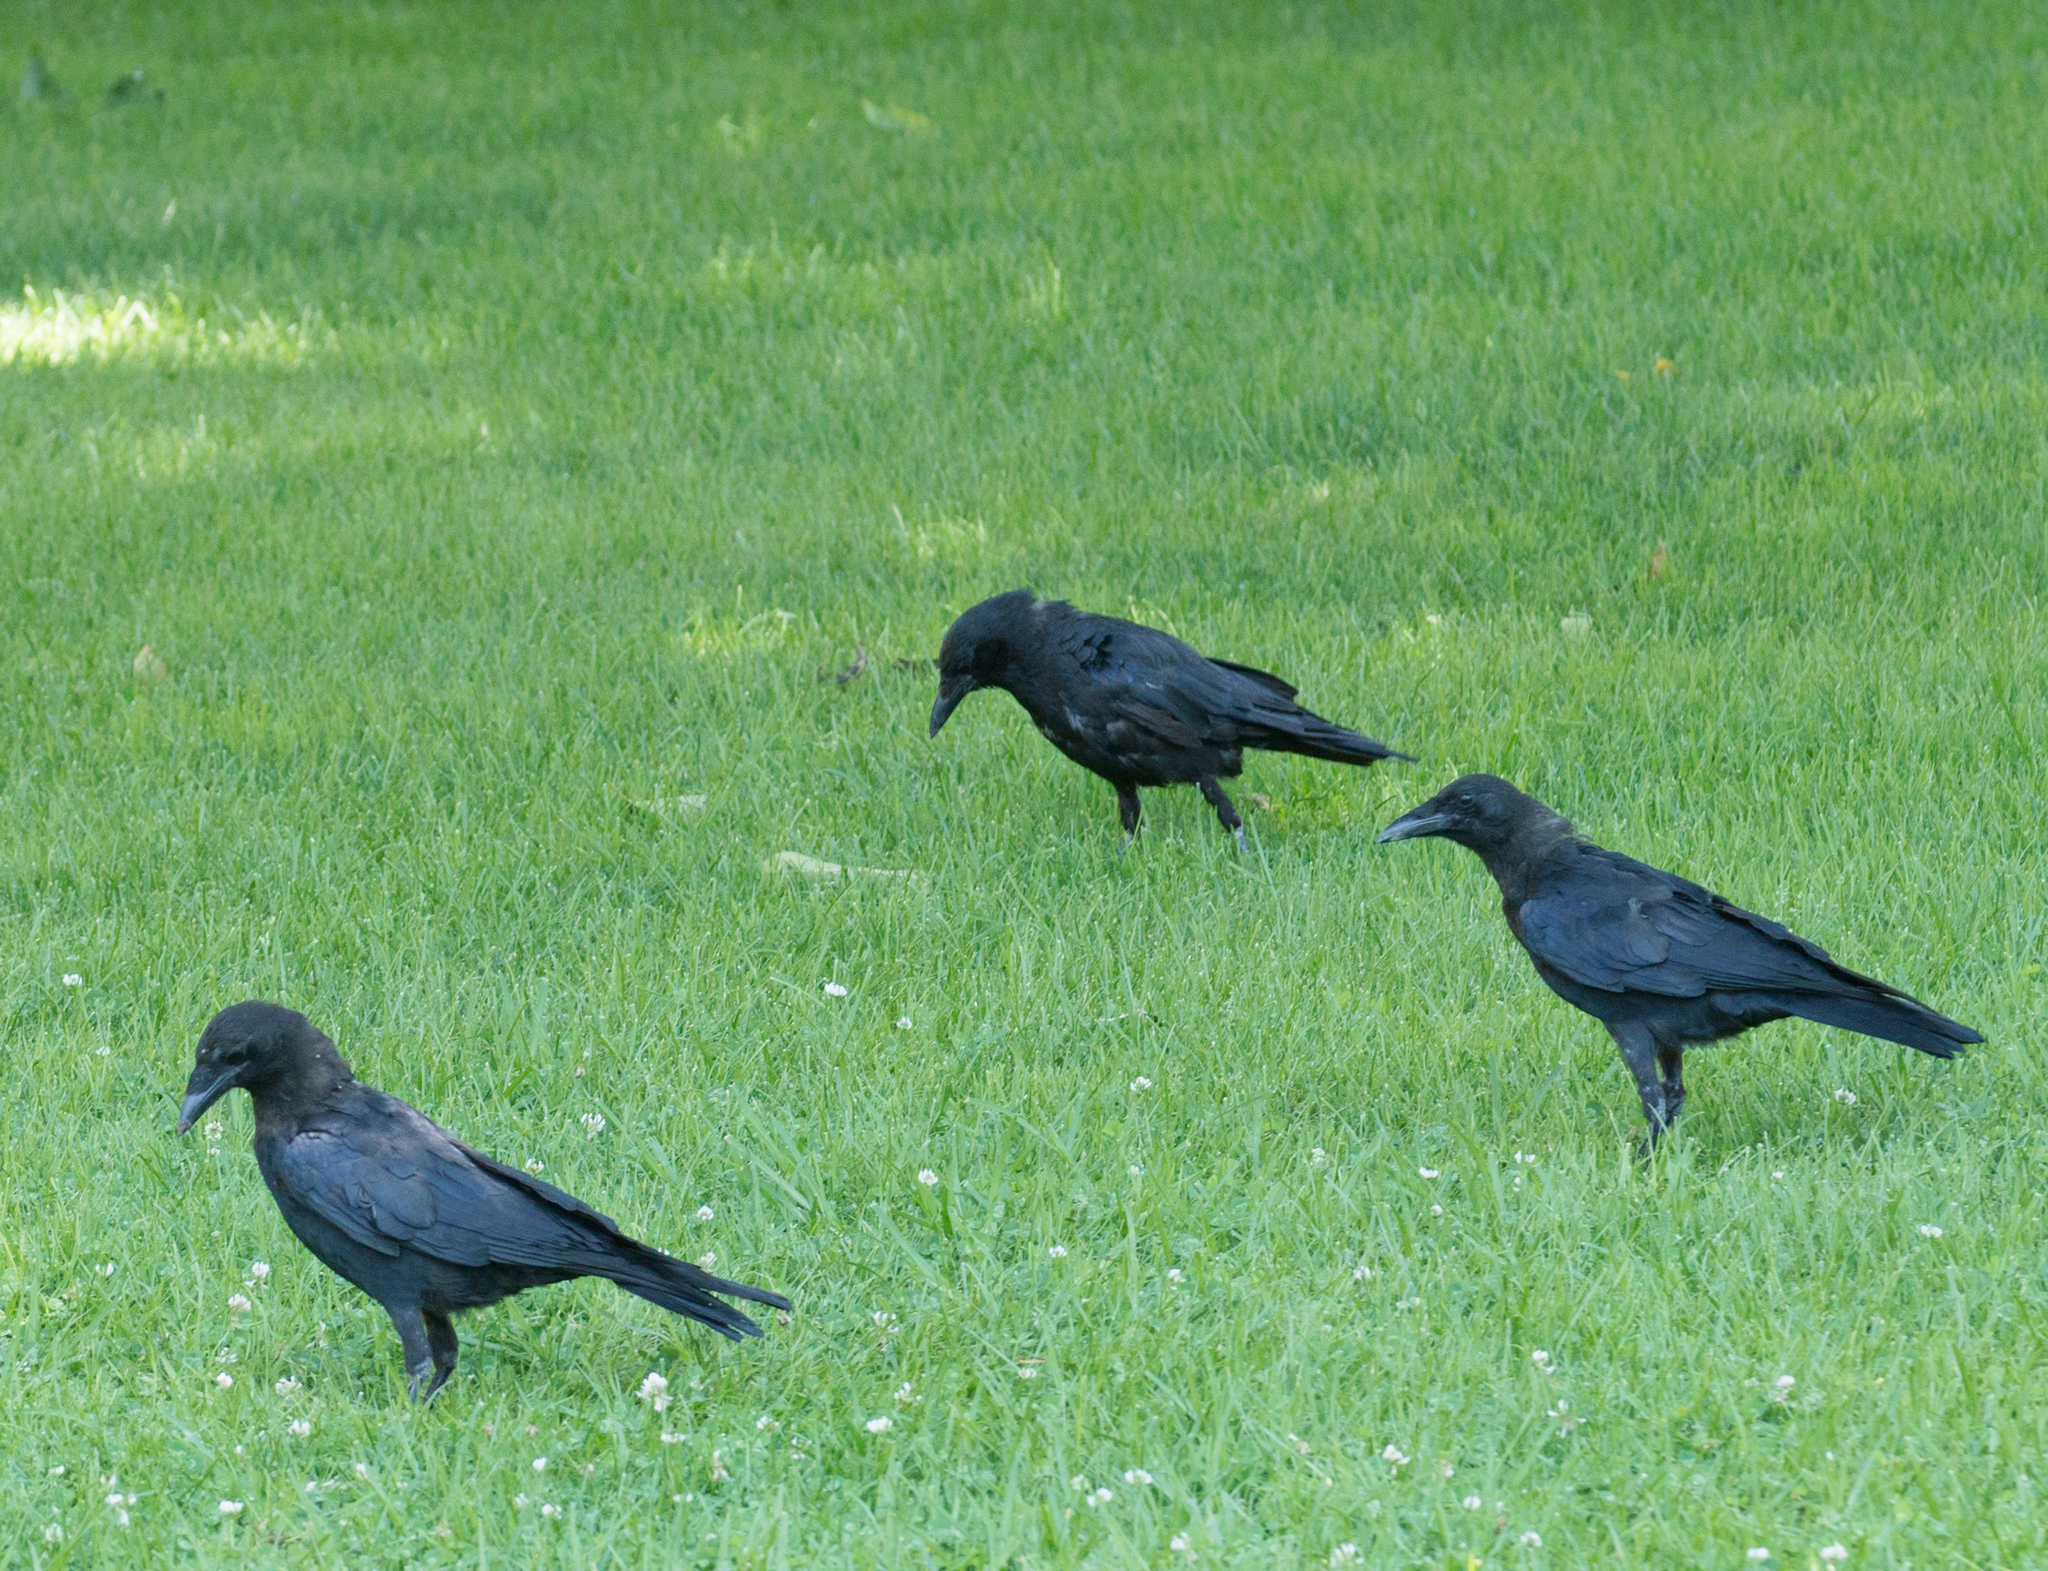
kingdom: Animalia
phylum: Chordata
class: Aves
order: Passeriformes
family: Corvidae
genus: Corvus
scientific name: Corvus brachyrhynchos
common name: American crow
